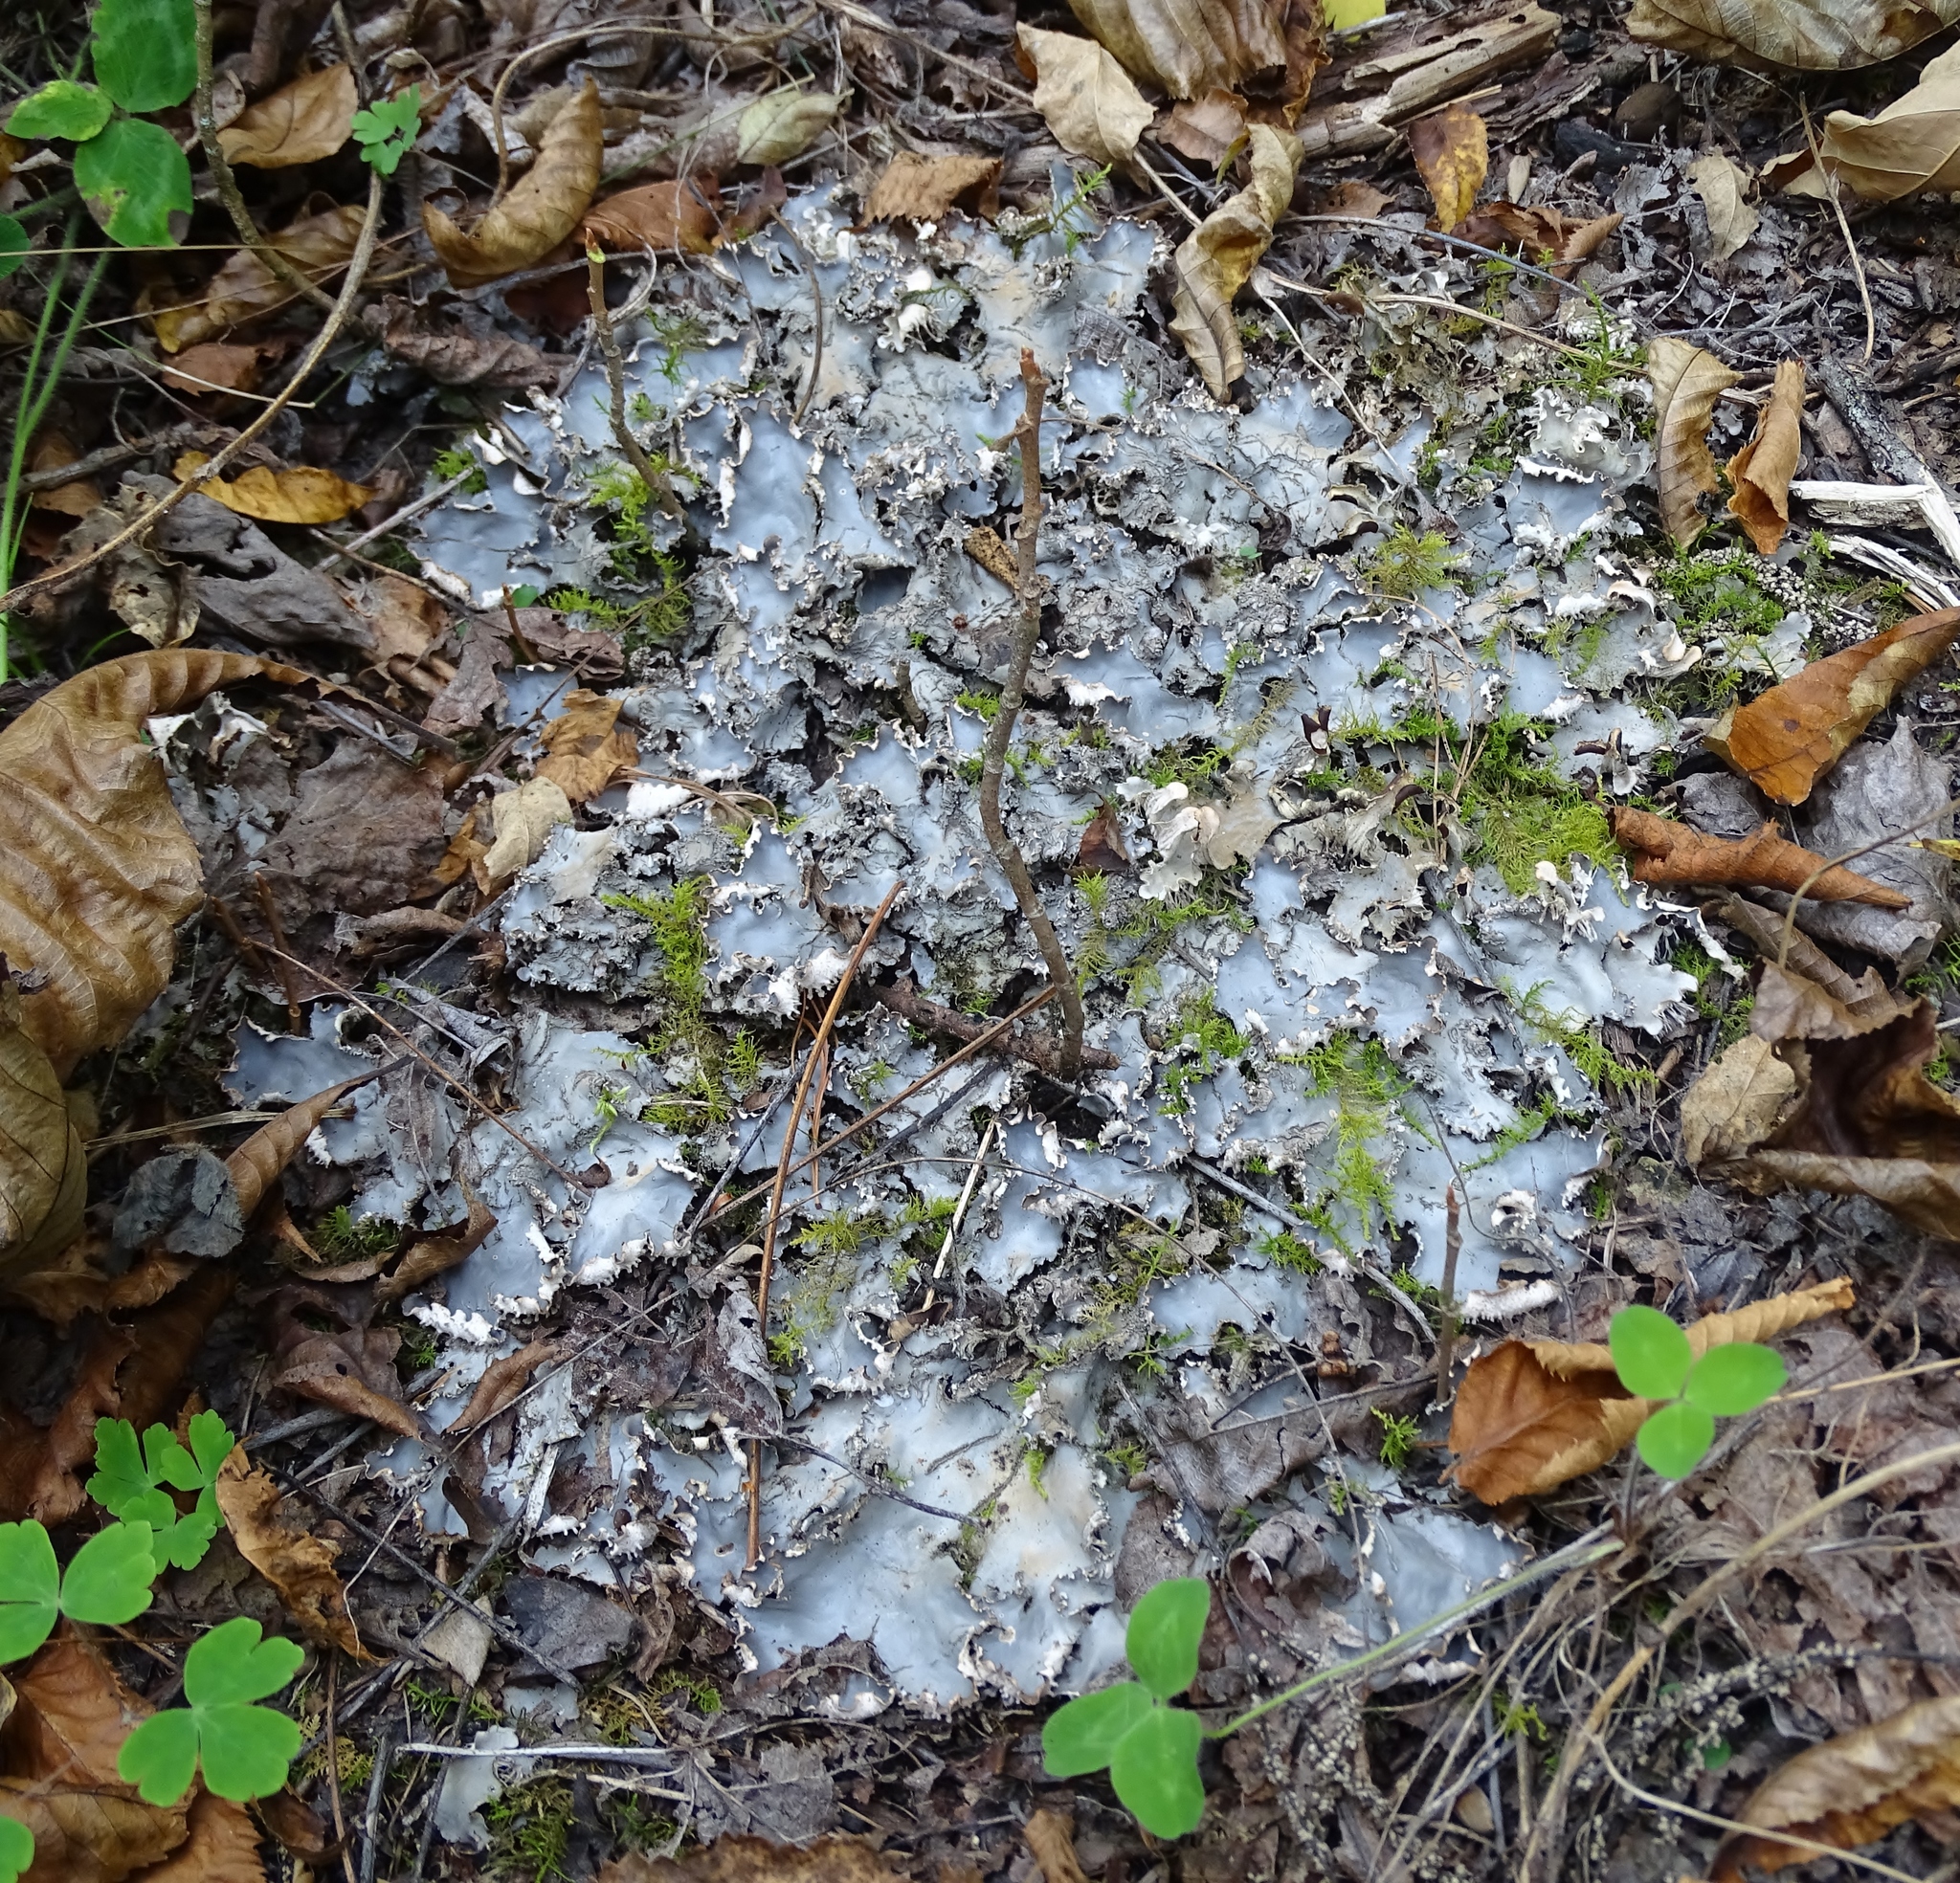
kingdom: Fungi
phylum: Ascomycota
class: Lecanoromycetes
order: Peltigerales
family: Peltigeraceae
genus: Peltigera
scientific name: Peltigera canina
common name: Dog pelt lichen
